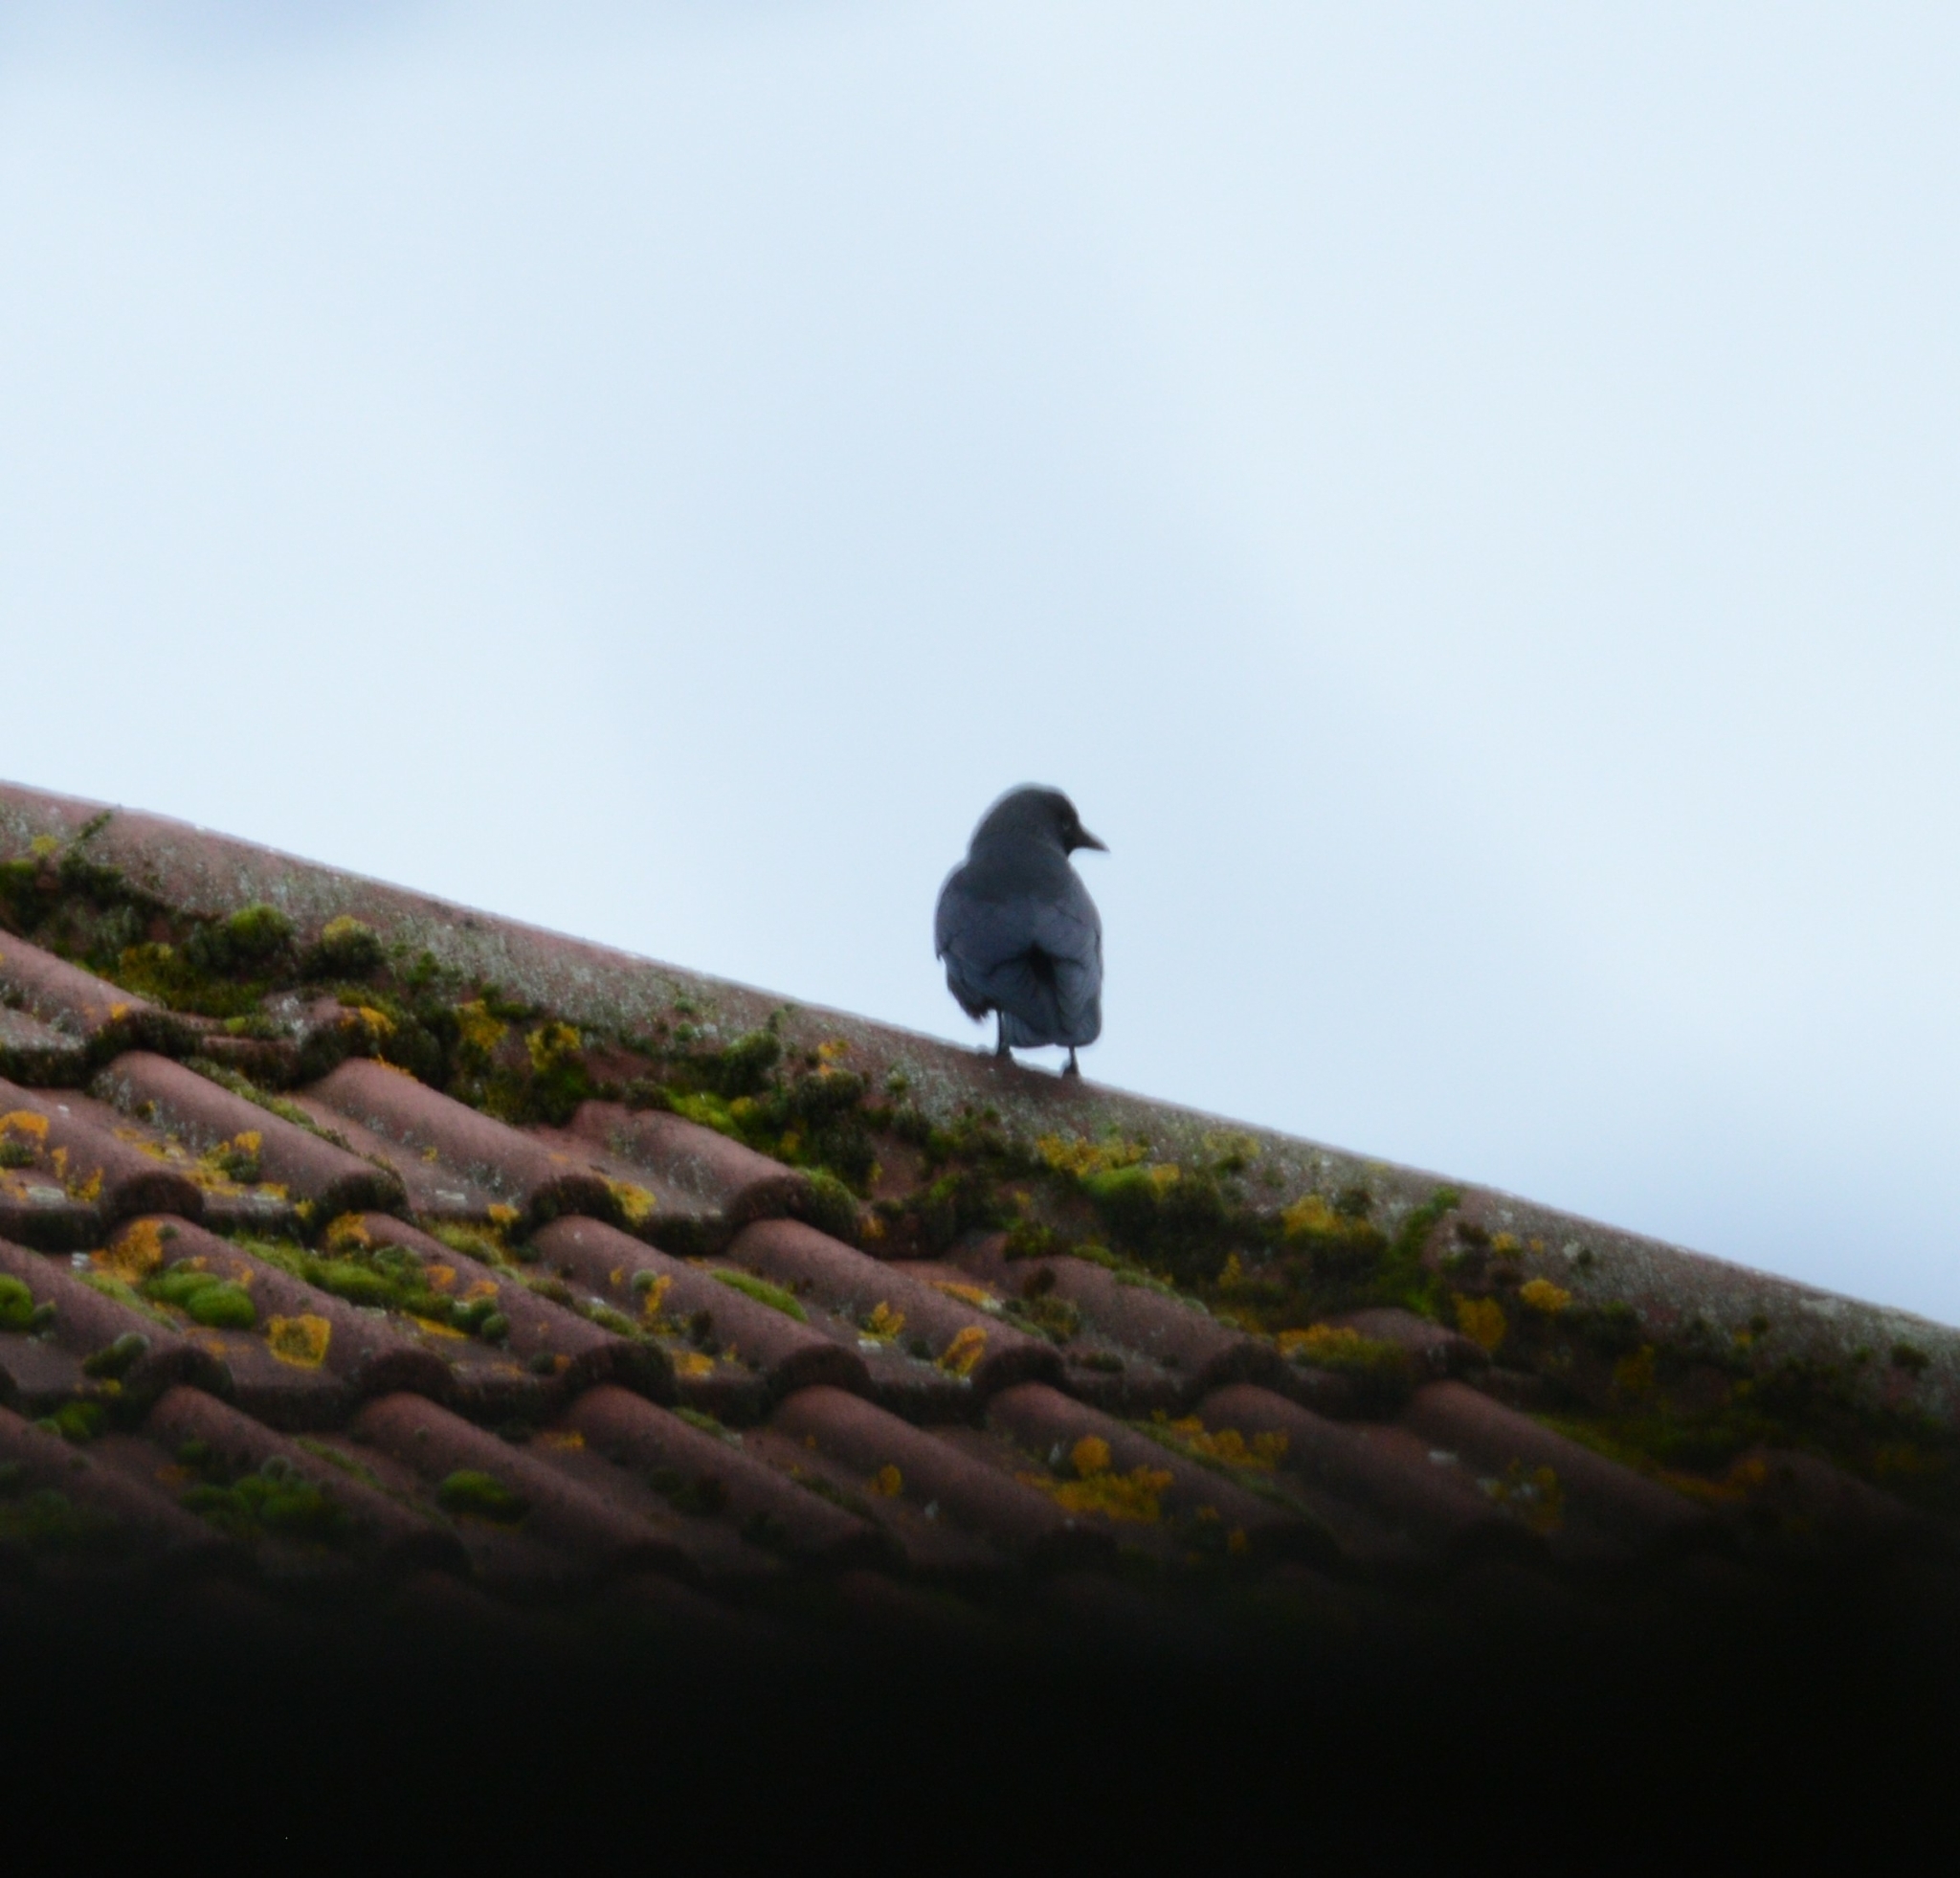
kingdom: Animalia
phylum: Chordata
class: Aves
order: Passeriformes
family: Corvidae
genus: Coloeus
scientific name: Coloeus monedula
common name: Western jackdaw
